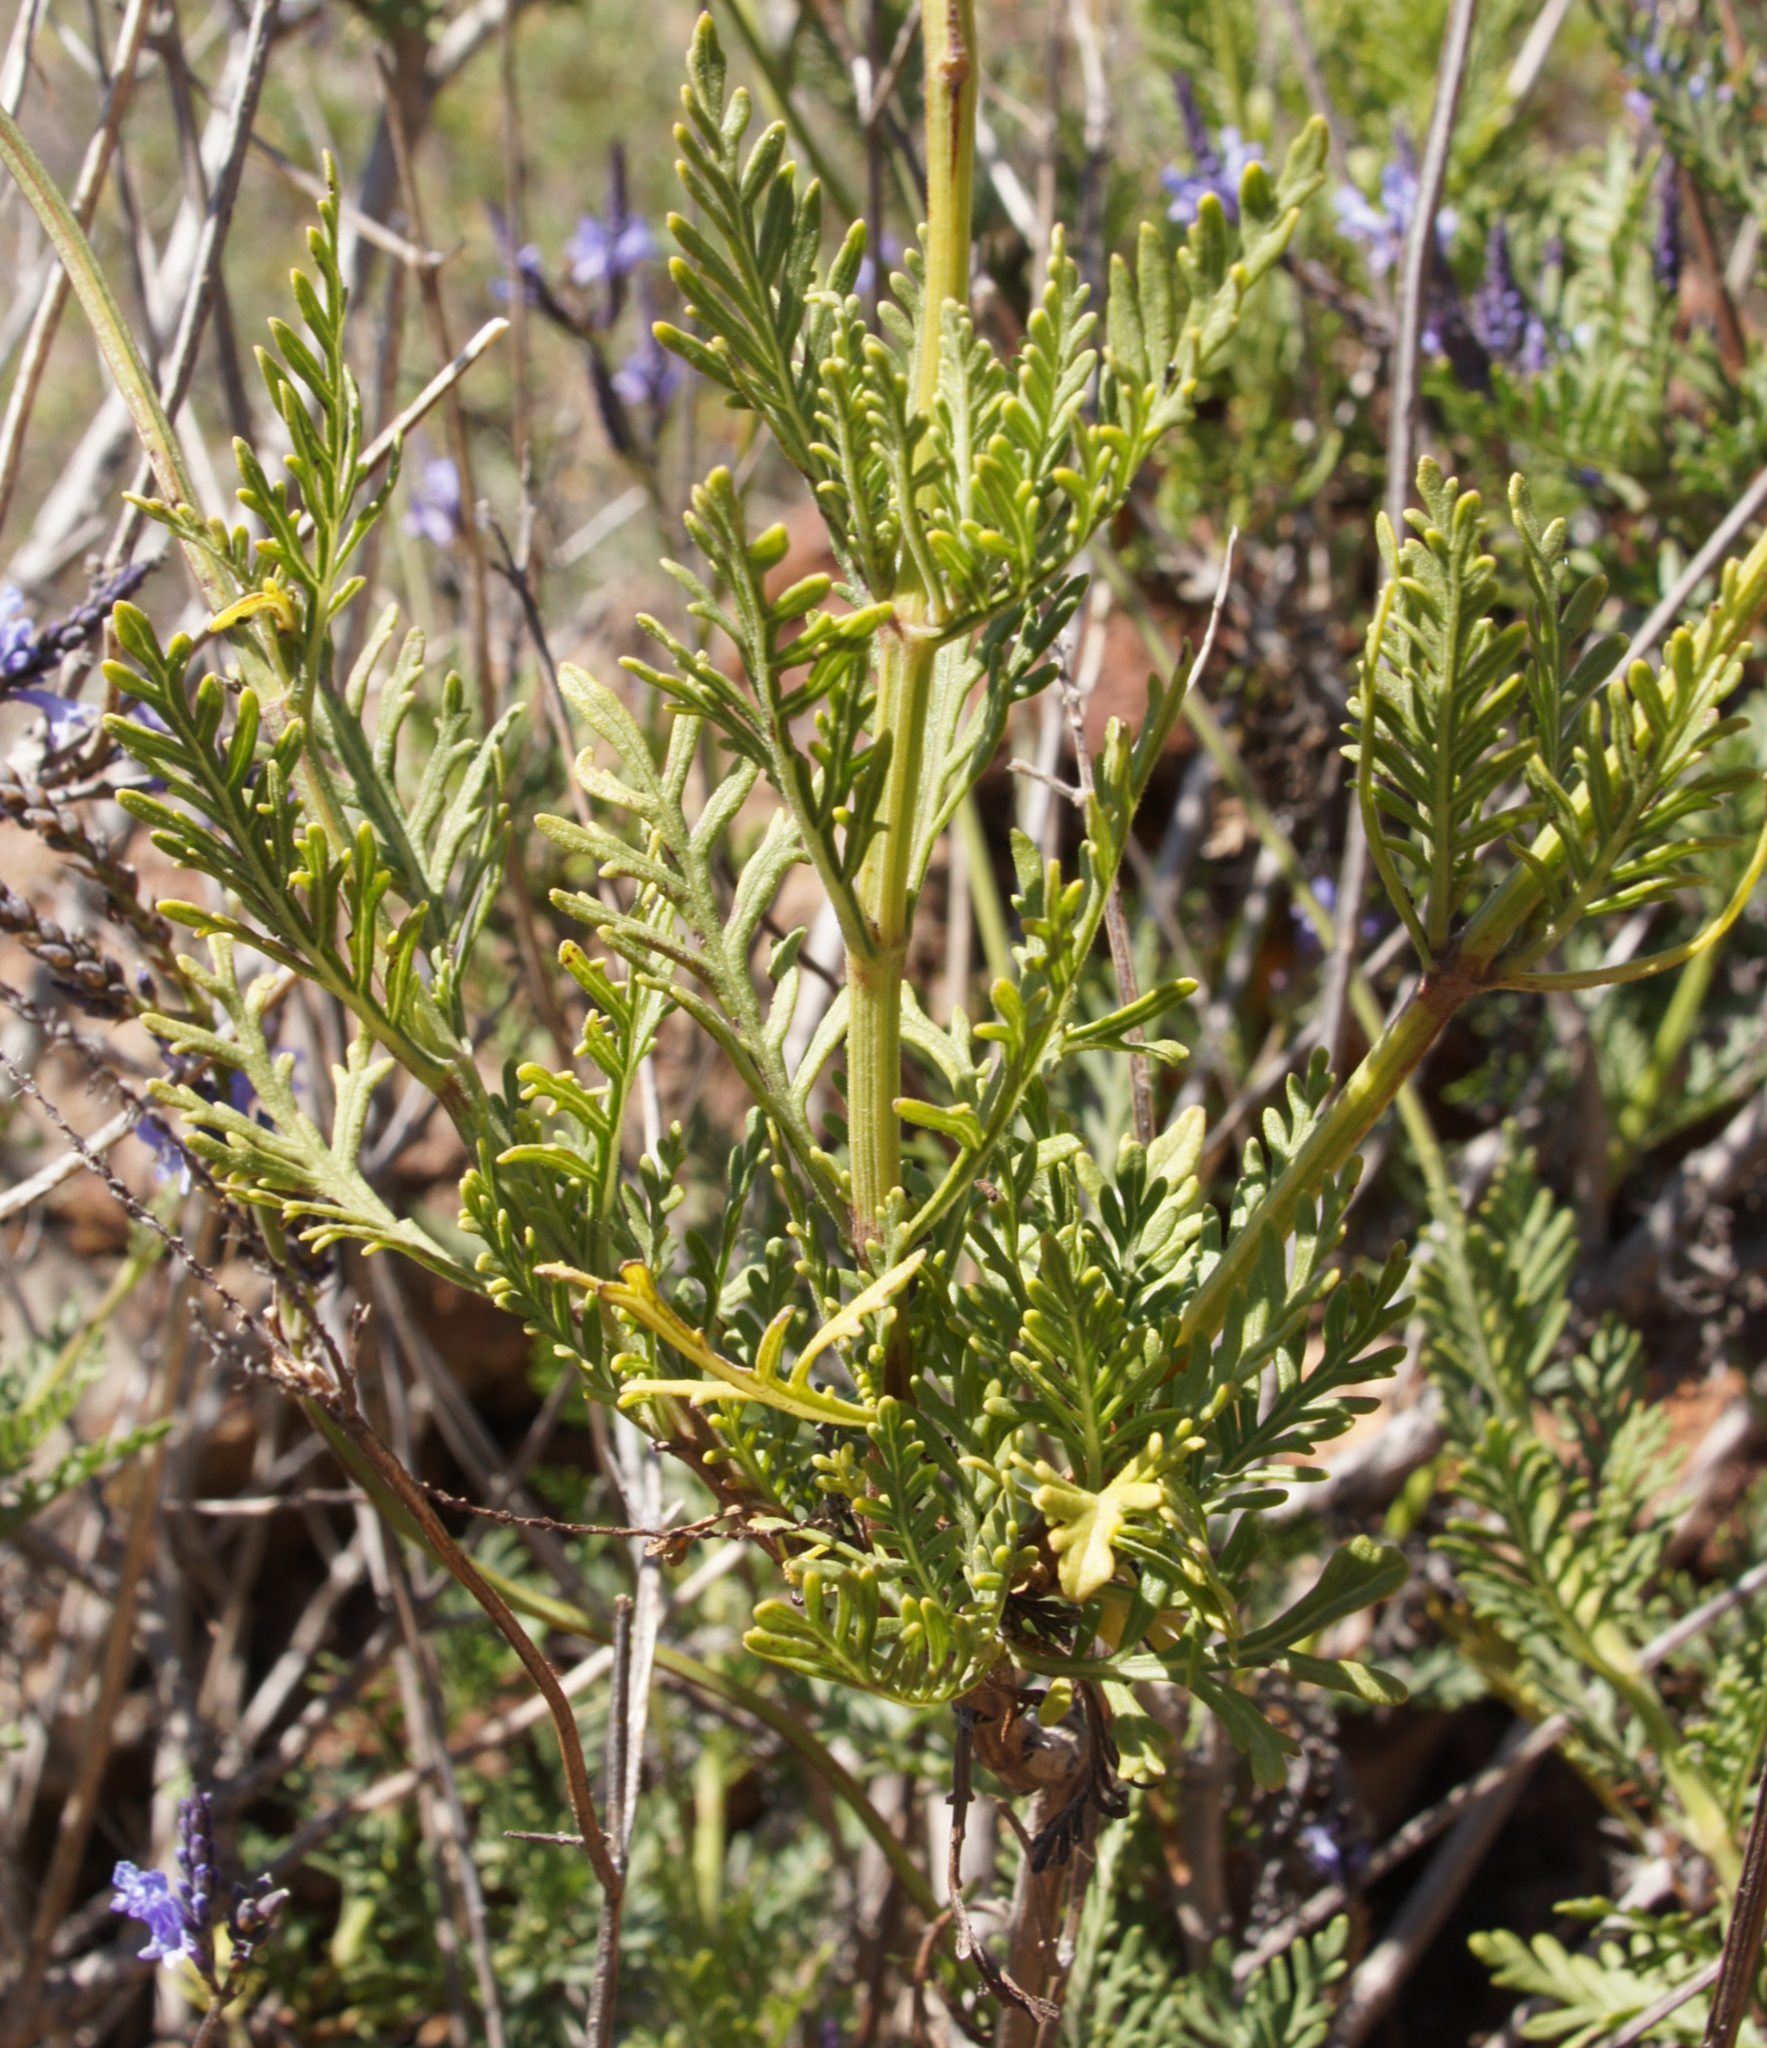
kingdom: Plantae
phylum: Tracheophyta
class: Magnoliopsida
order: Lamiales
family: Lamiaceae
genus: Lavandula
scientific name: Lavandula canariensis
